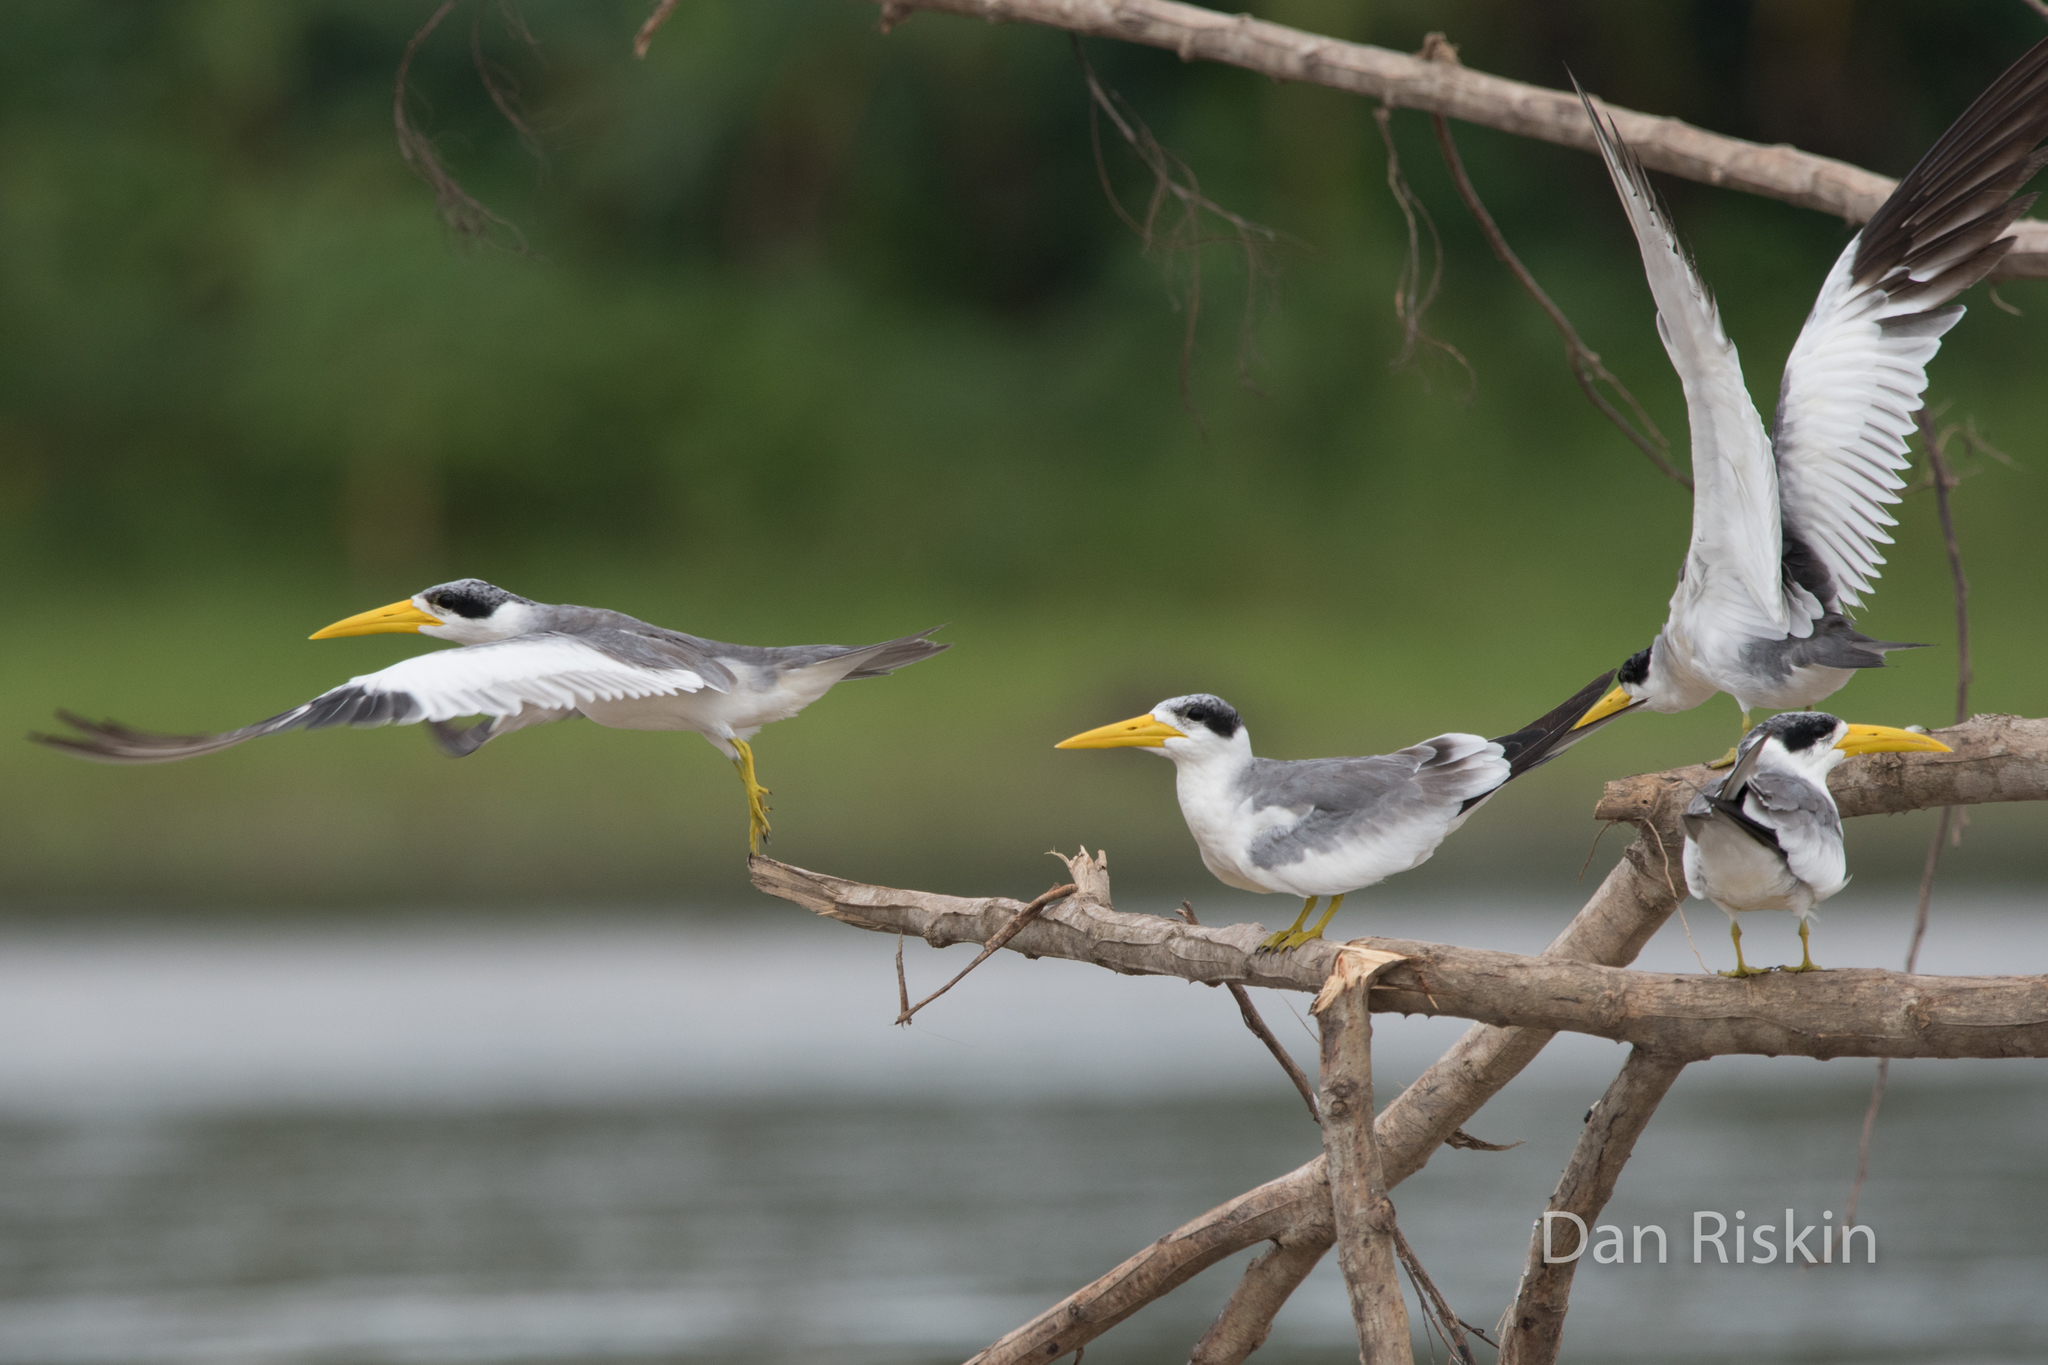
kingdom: Animalia
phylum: Chordata
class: Aves
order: Charadriiformes
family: Laridae
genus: Phaetusa
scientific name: Phaetusa simplex
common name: Large-billed tern
